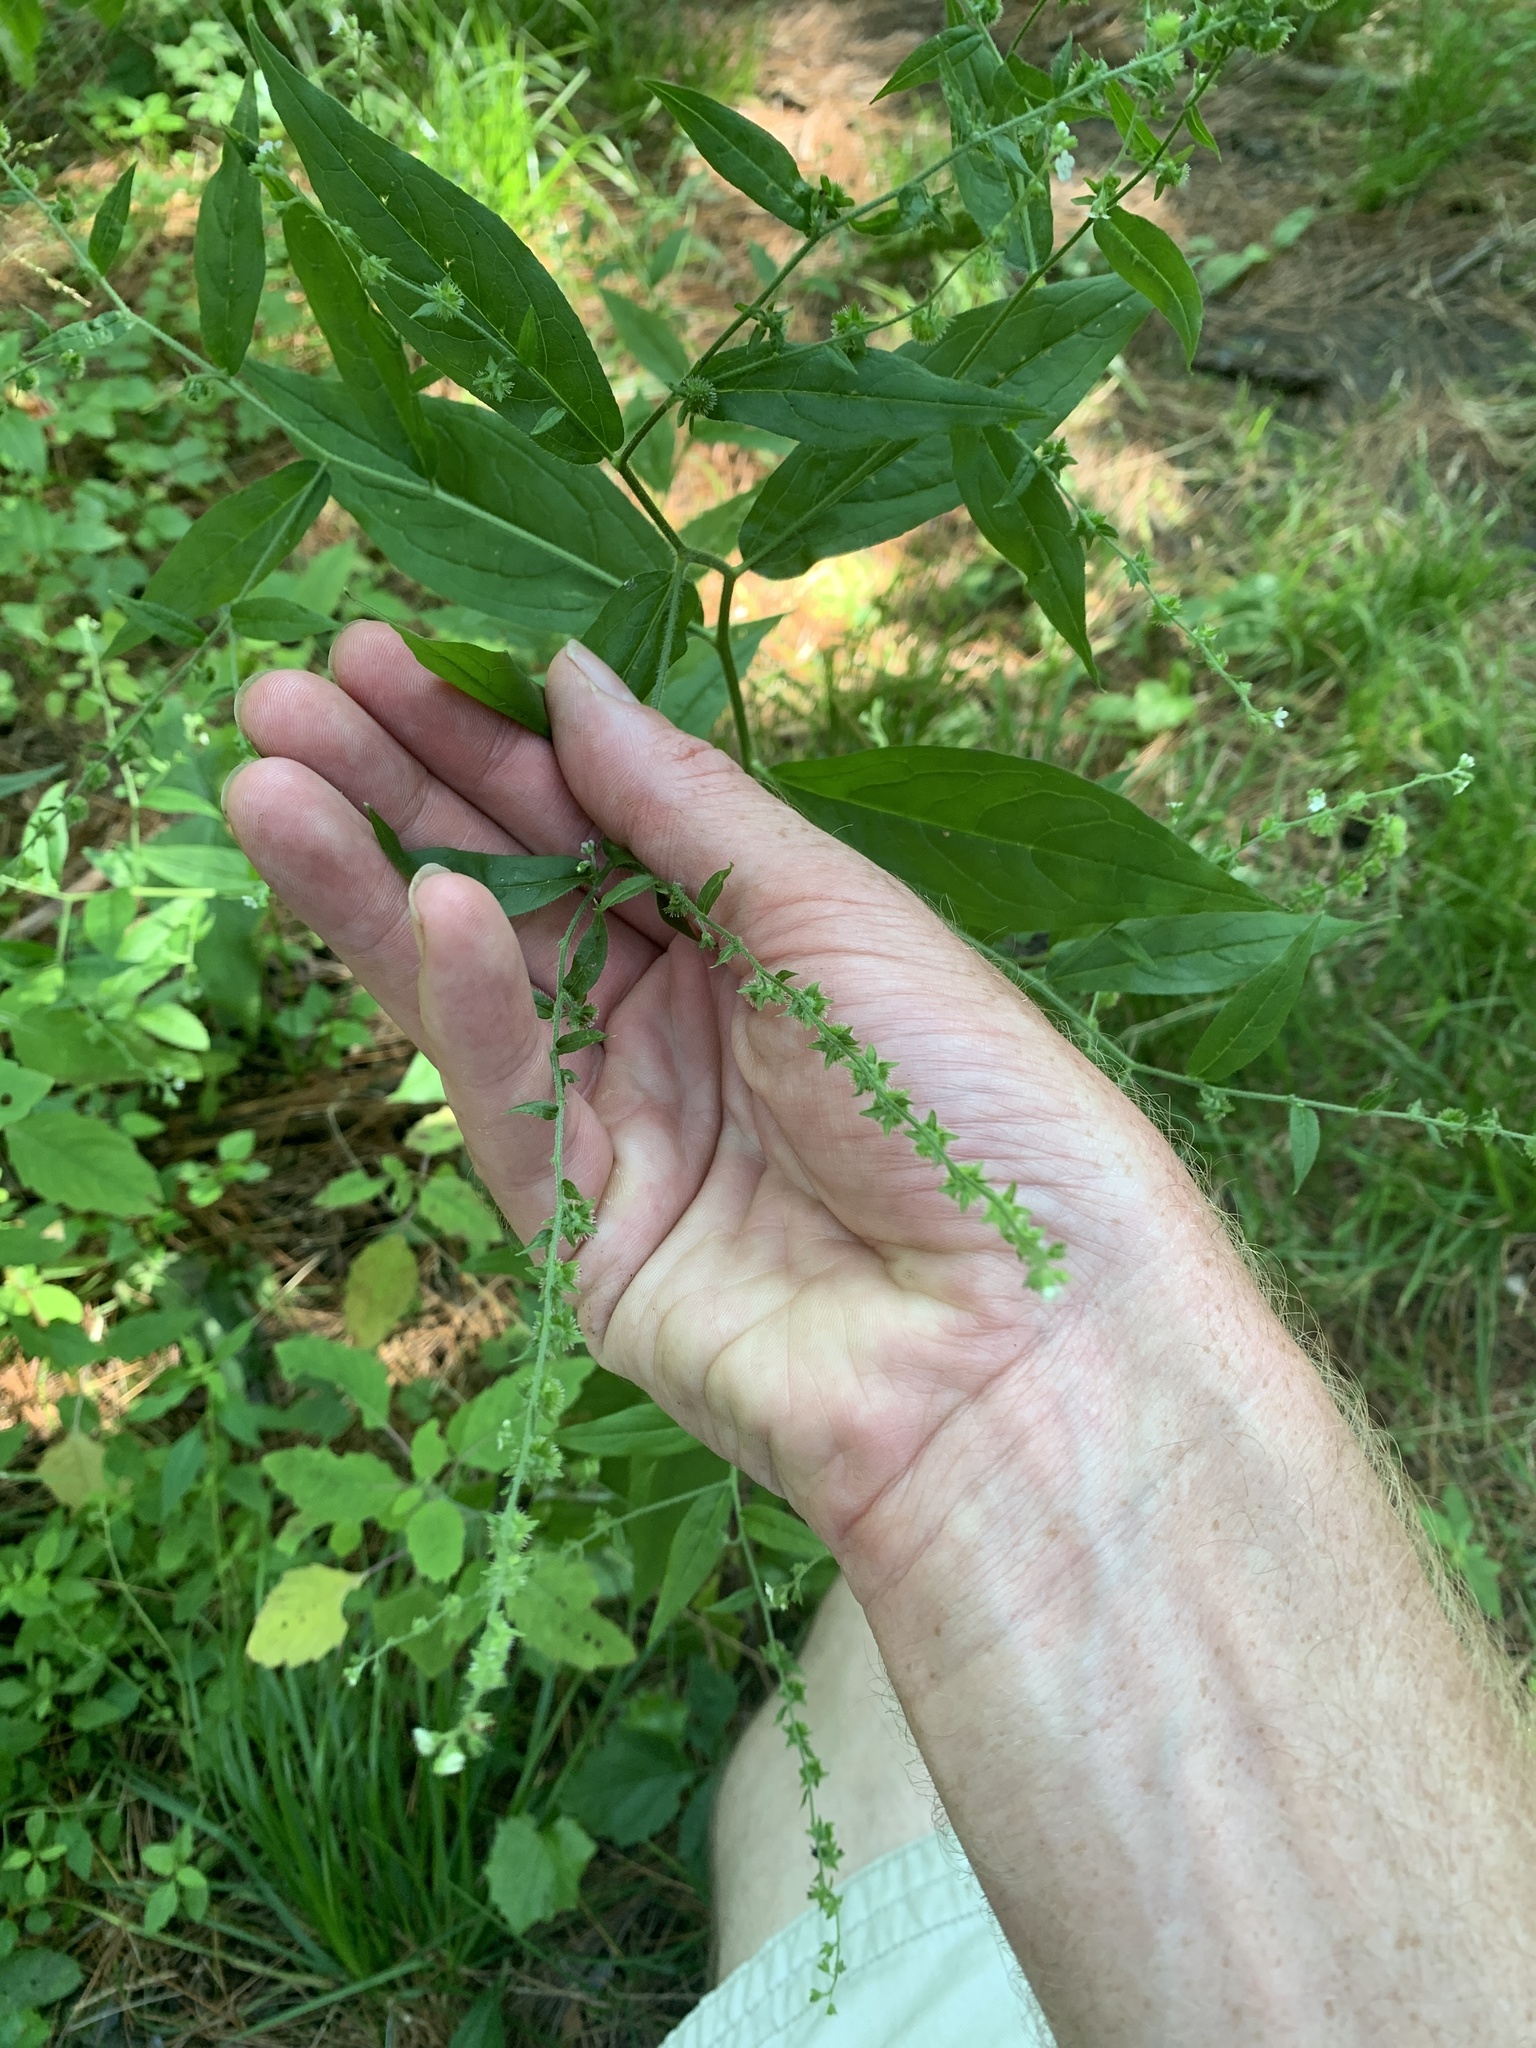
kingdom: Plantae
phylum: Tracheophyta
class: Magnoliopsida
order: Boraginales
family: Boraginaceae
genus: Hackelia
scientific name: Hackelia virginiana
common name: Beggar's-lice
